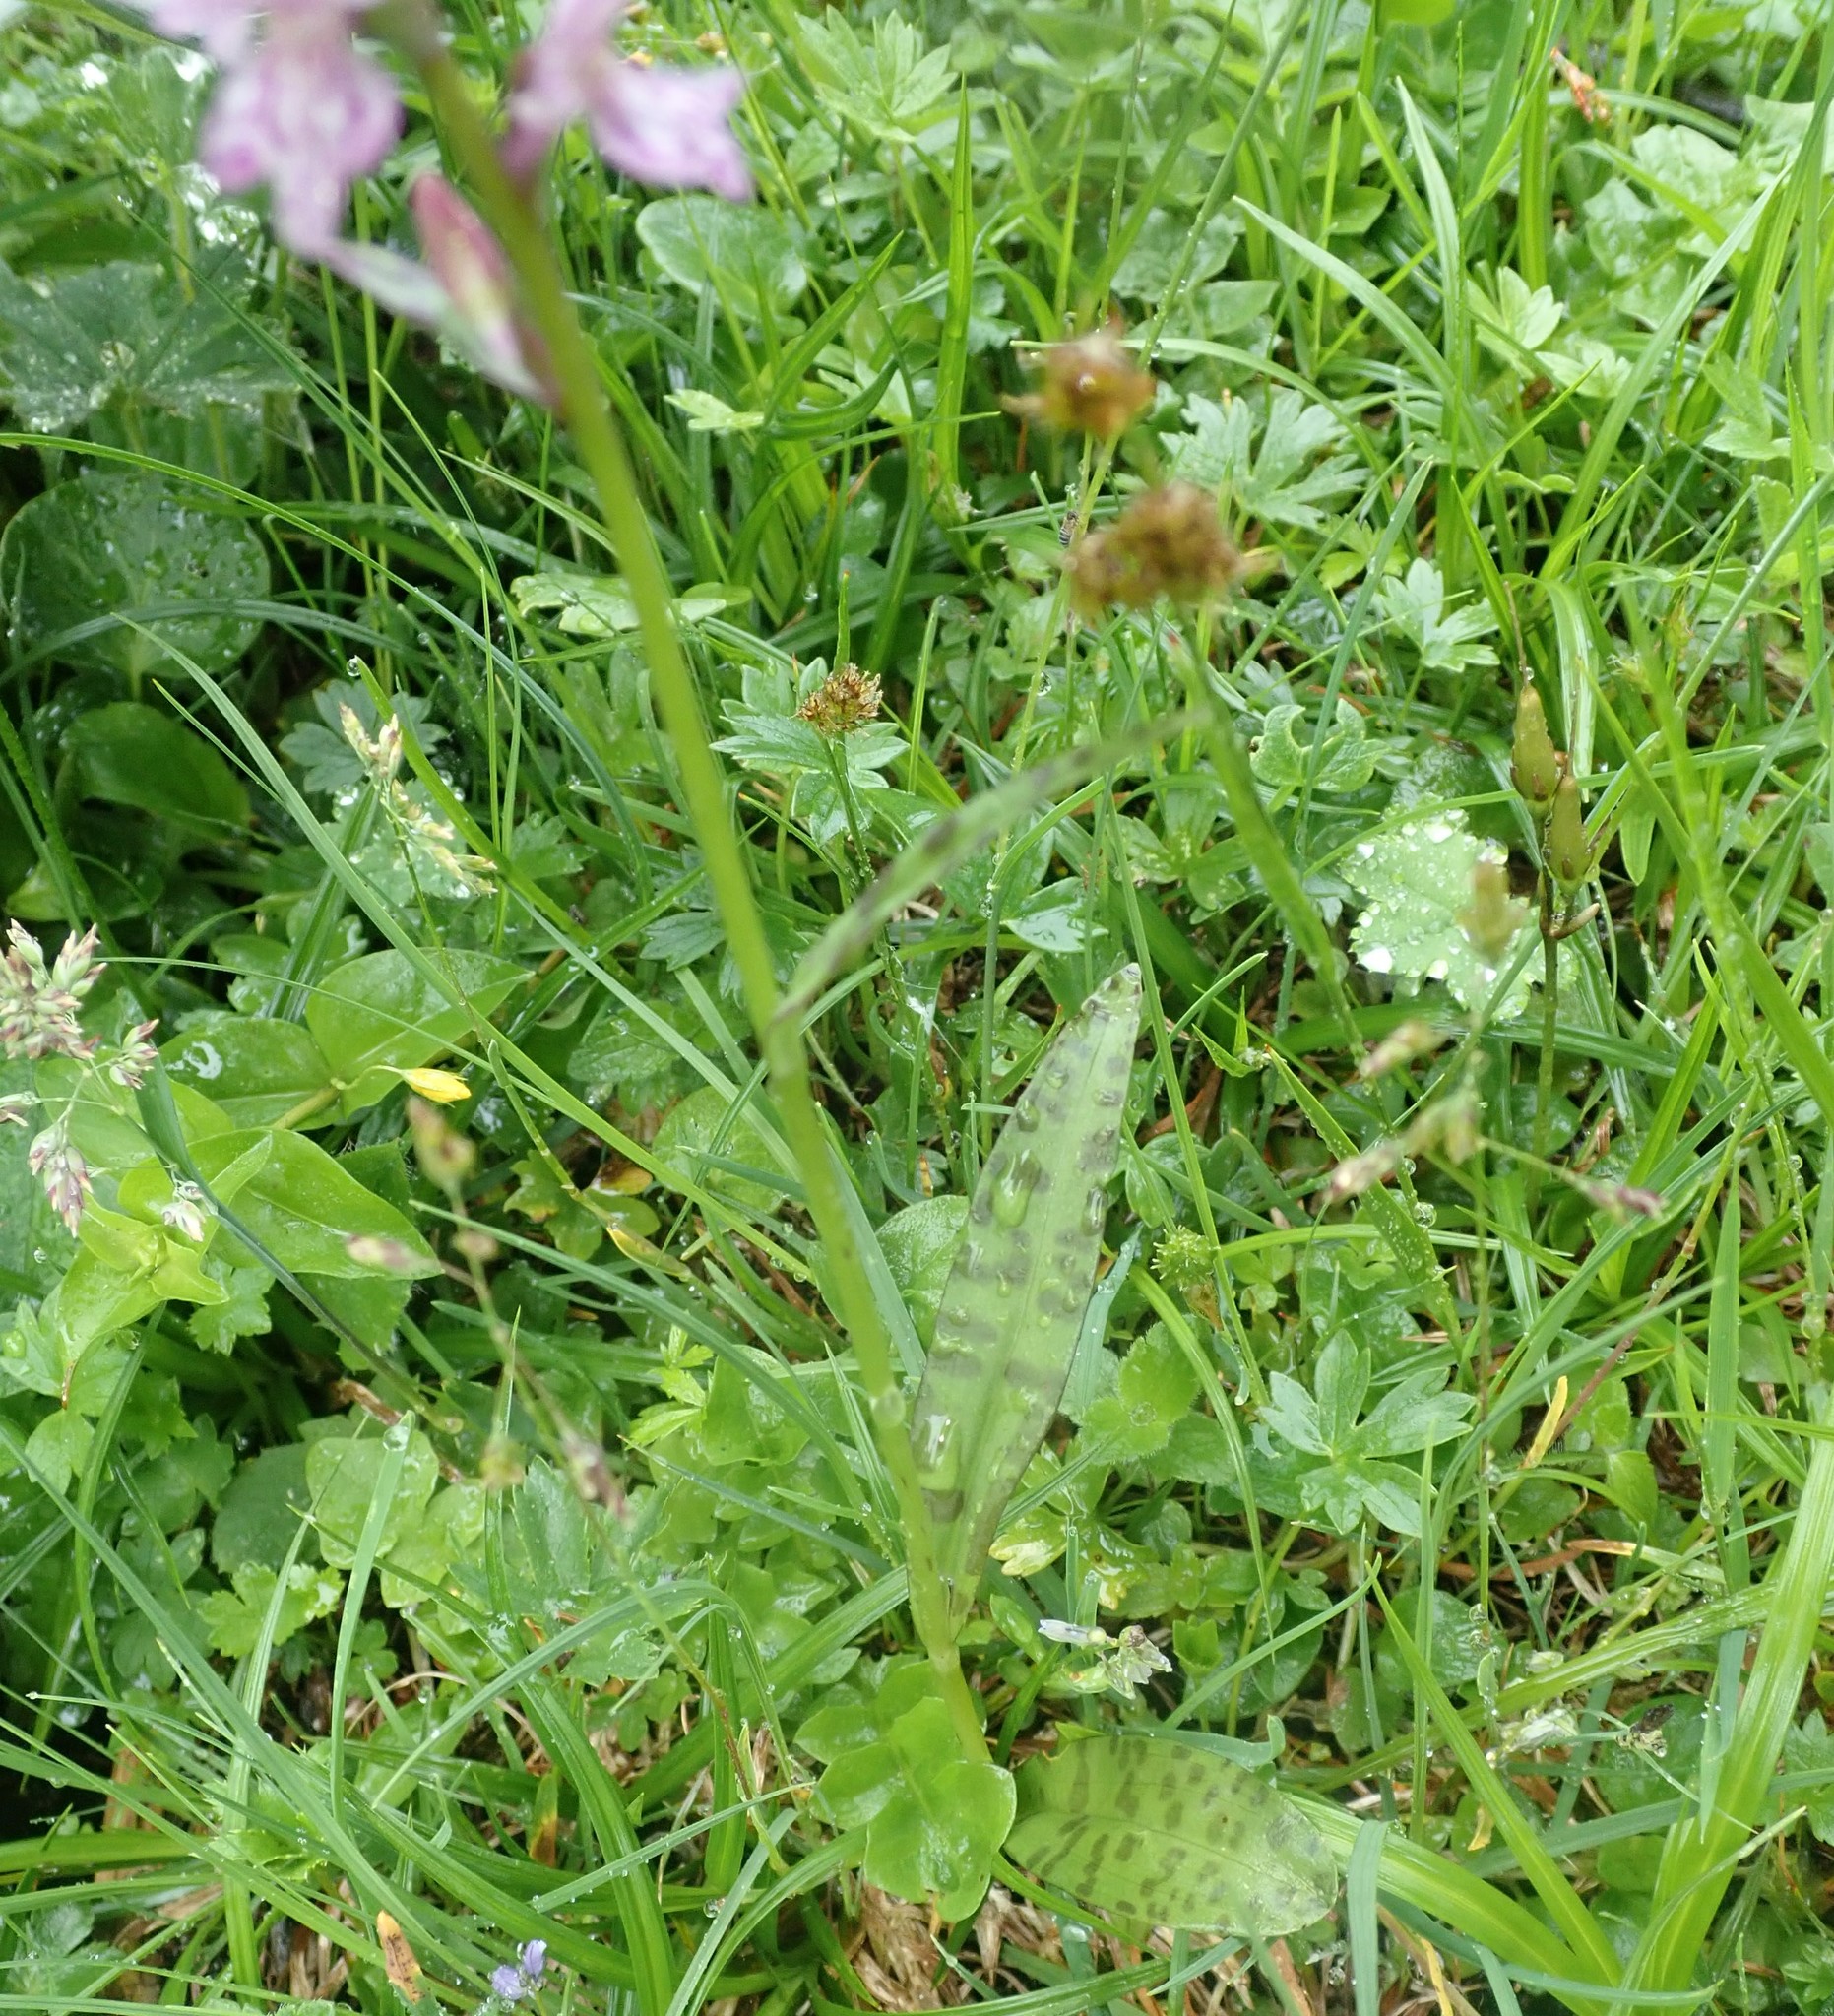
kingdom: Plantae
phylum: Tracheophyta
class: Liliopsida
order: Asparagales
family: Orchidaceae
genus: Dactylorhiza
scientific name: Dactylorhiza maculata
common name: Heath spotted-orchid
